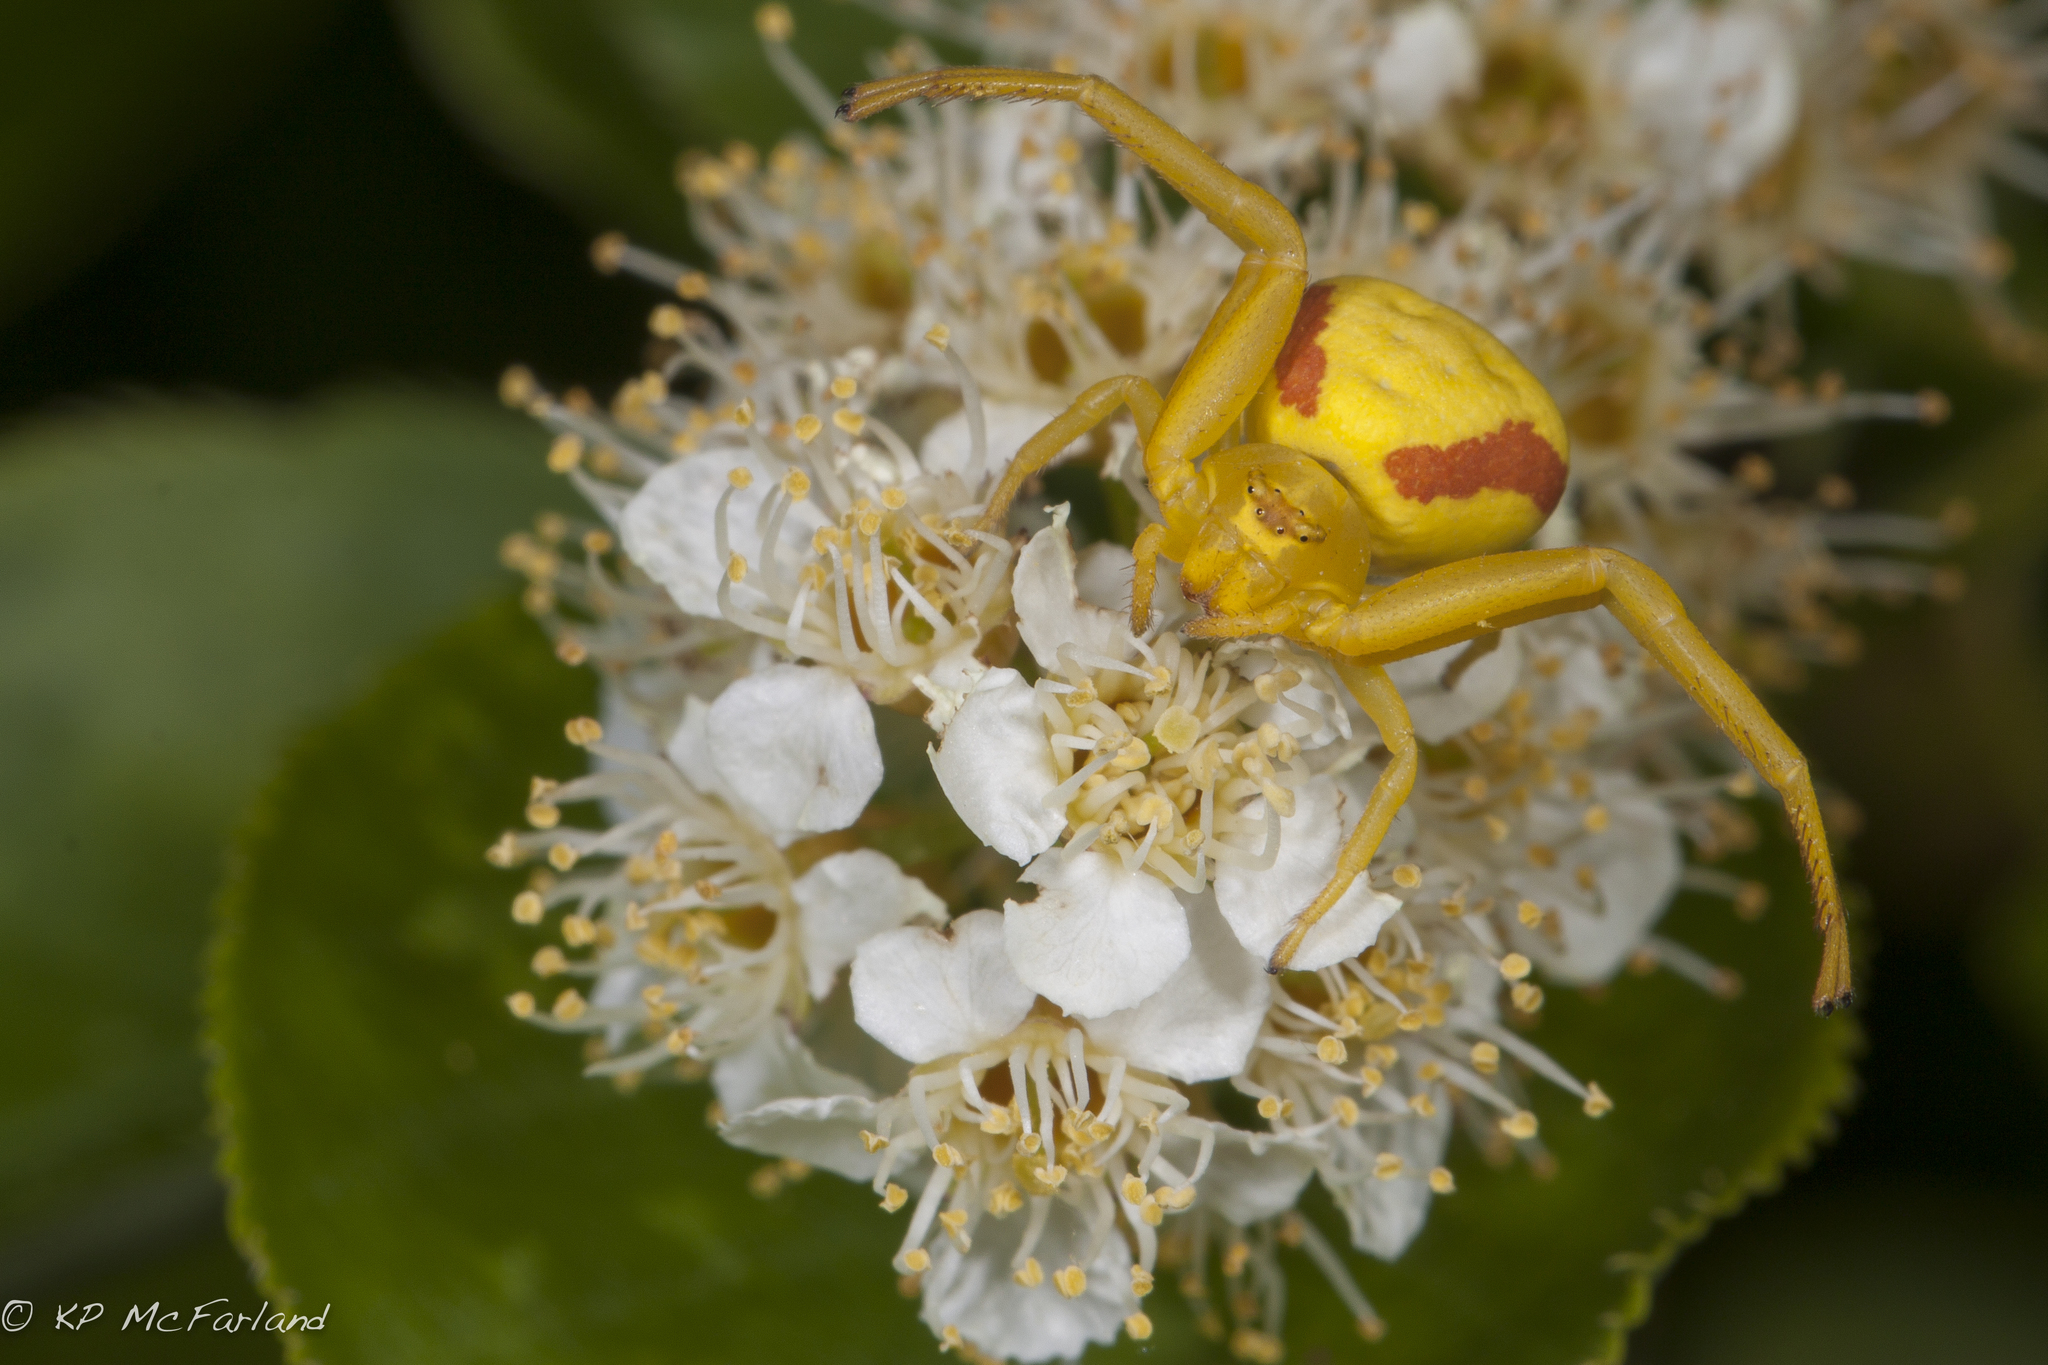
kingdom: Animalia
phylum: Arthropoda
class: Arachnida
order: Araneae
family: Thomisidae
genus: Misumena
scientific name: Misumena vatia
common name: Goldenrod crab spider
